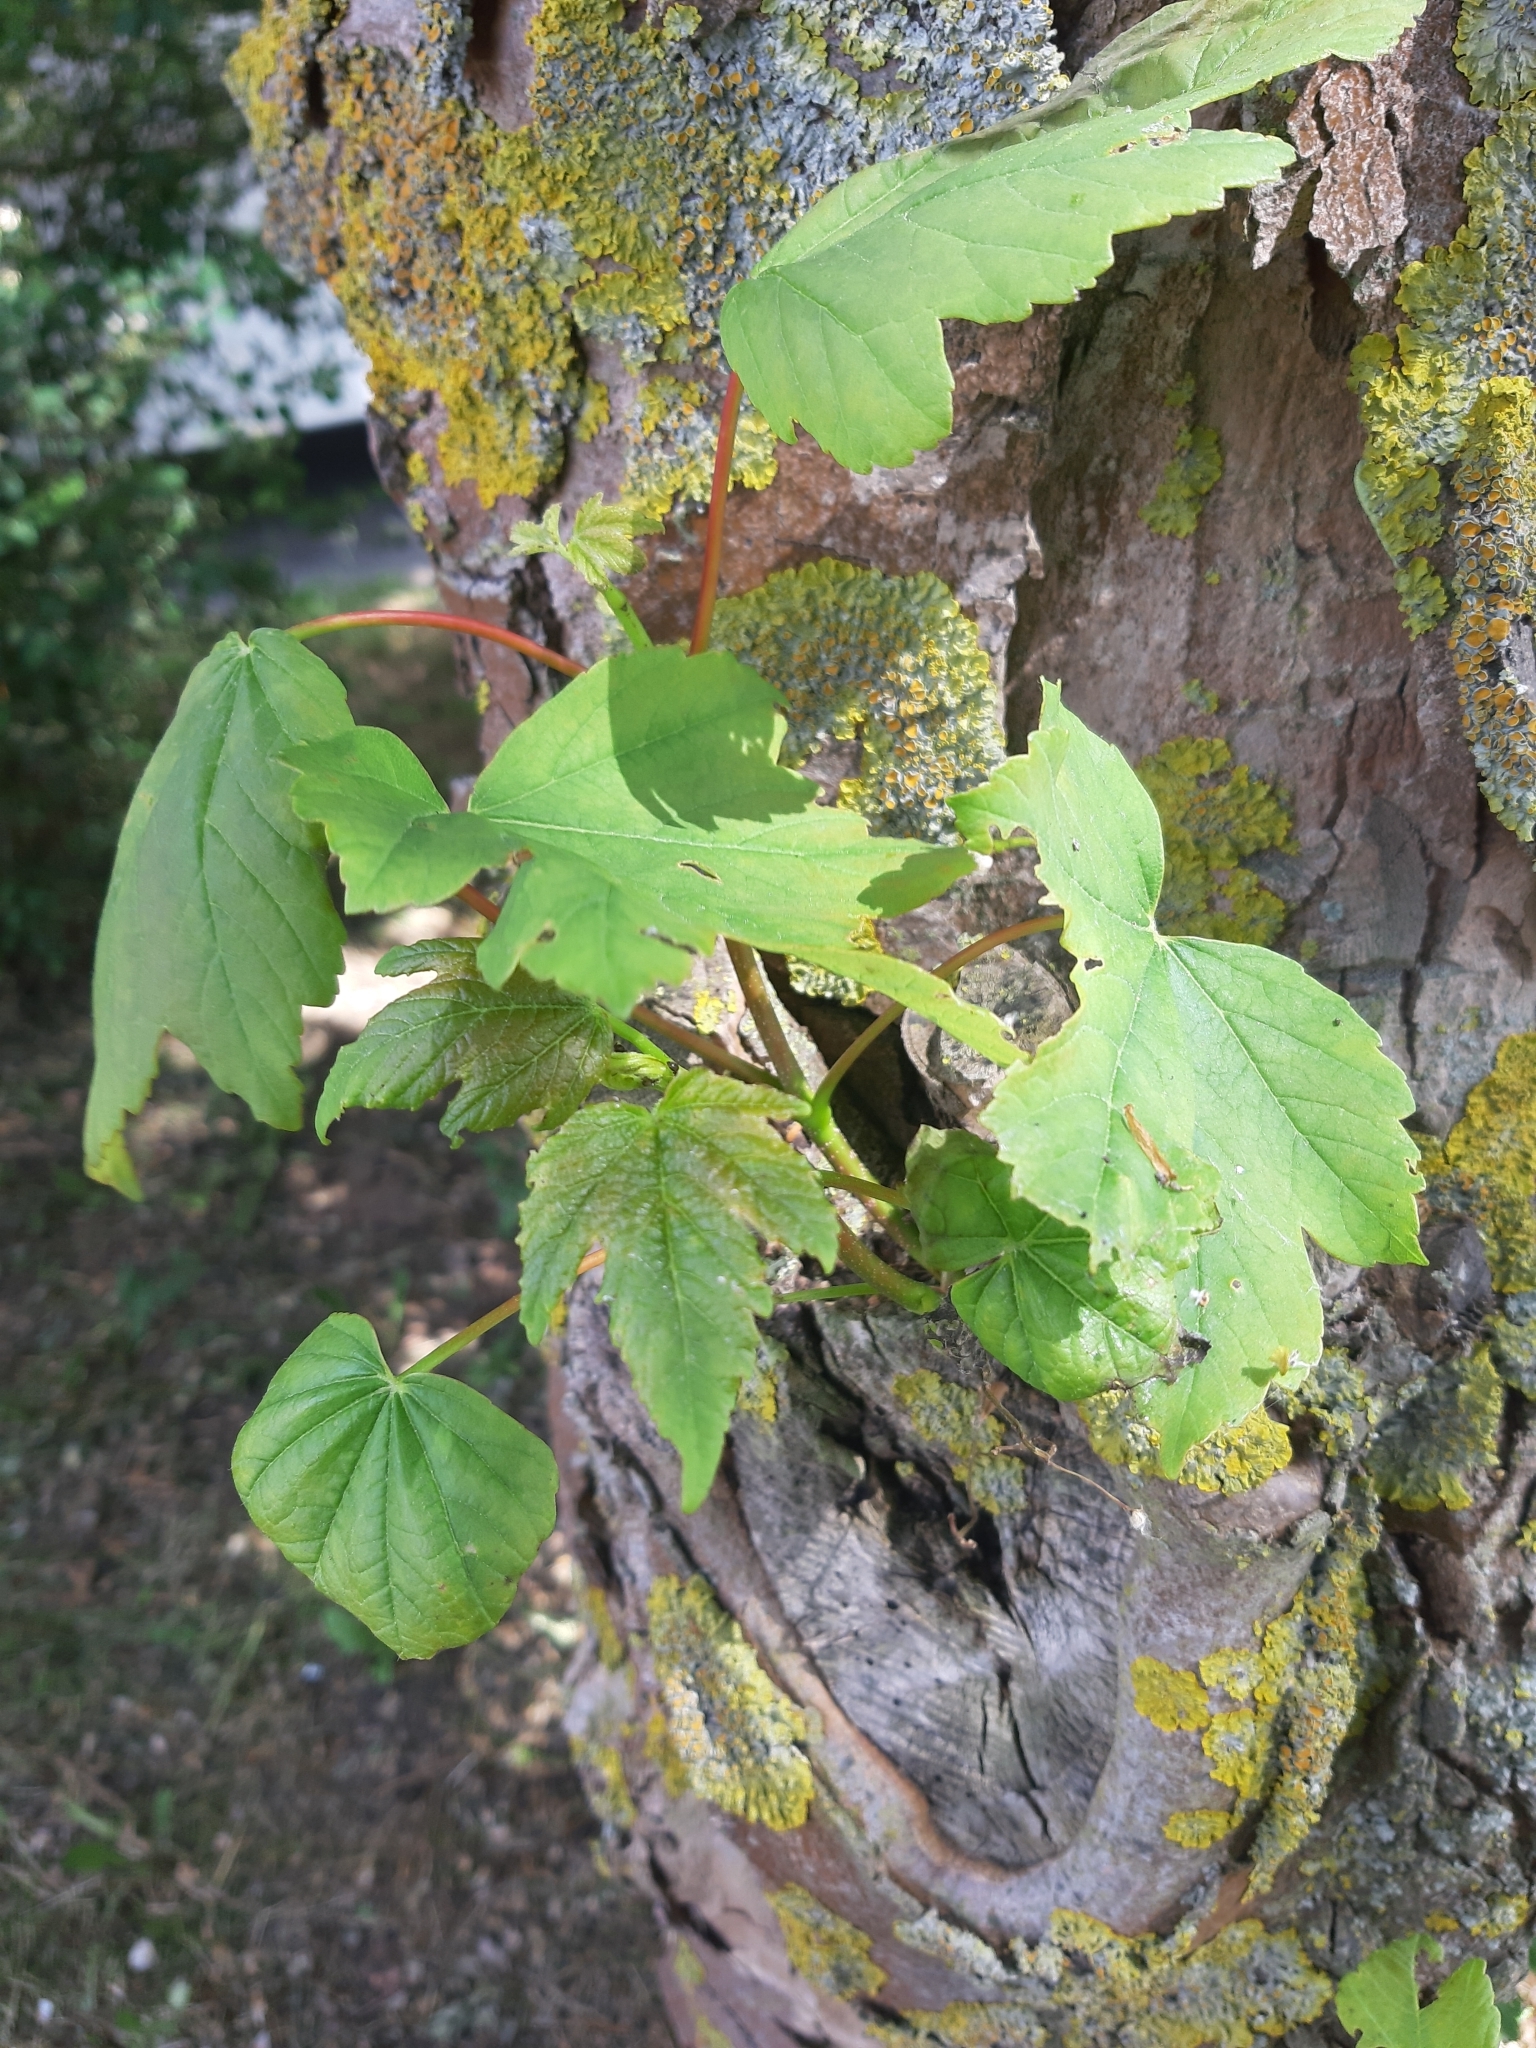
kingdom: Plantae
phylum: Tracheophyta
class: Magnoliopsida
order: Sapindales
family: Sapindaceae
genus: Acer
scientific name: Acer pseudoplatanus
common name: Sycamore
